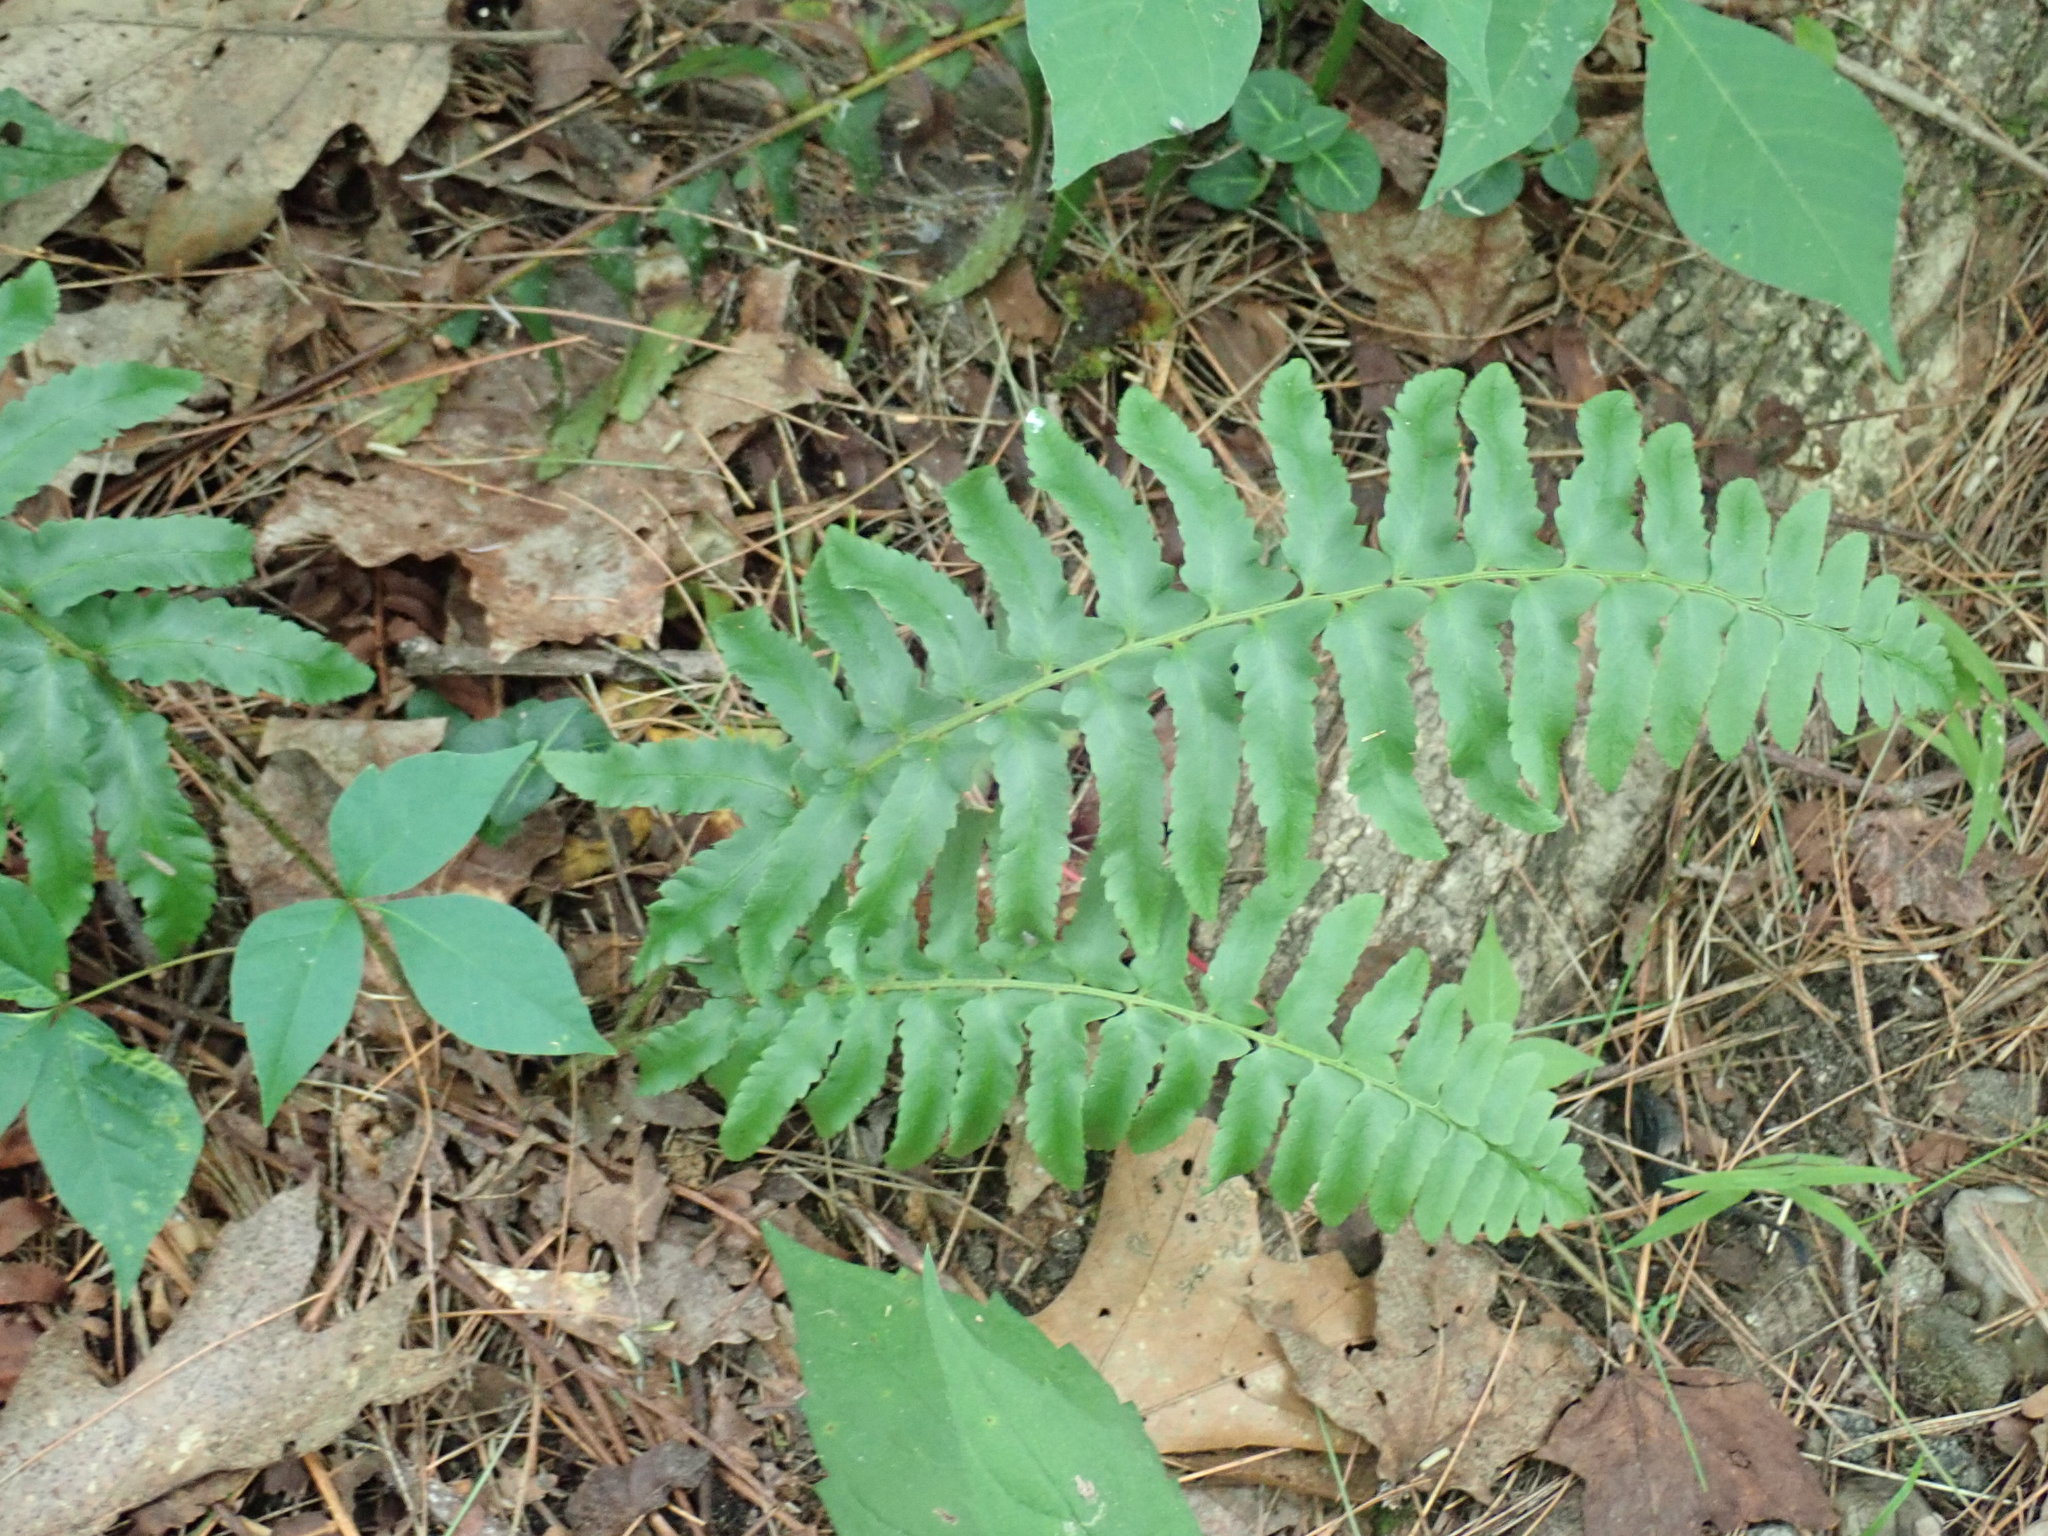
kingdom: Plantae
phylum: Tracheophyta
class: Polypodiopsida
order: Polypodiales
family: Dryopteridaceae
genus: Polystichum
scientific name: Polystichum acrostichoides
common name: Christmas fern
